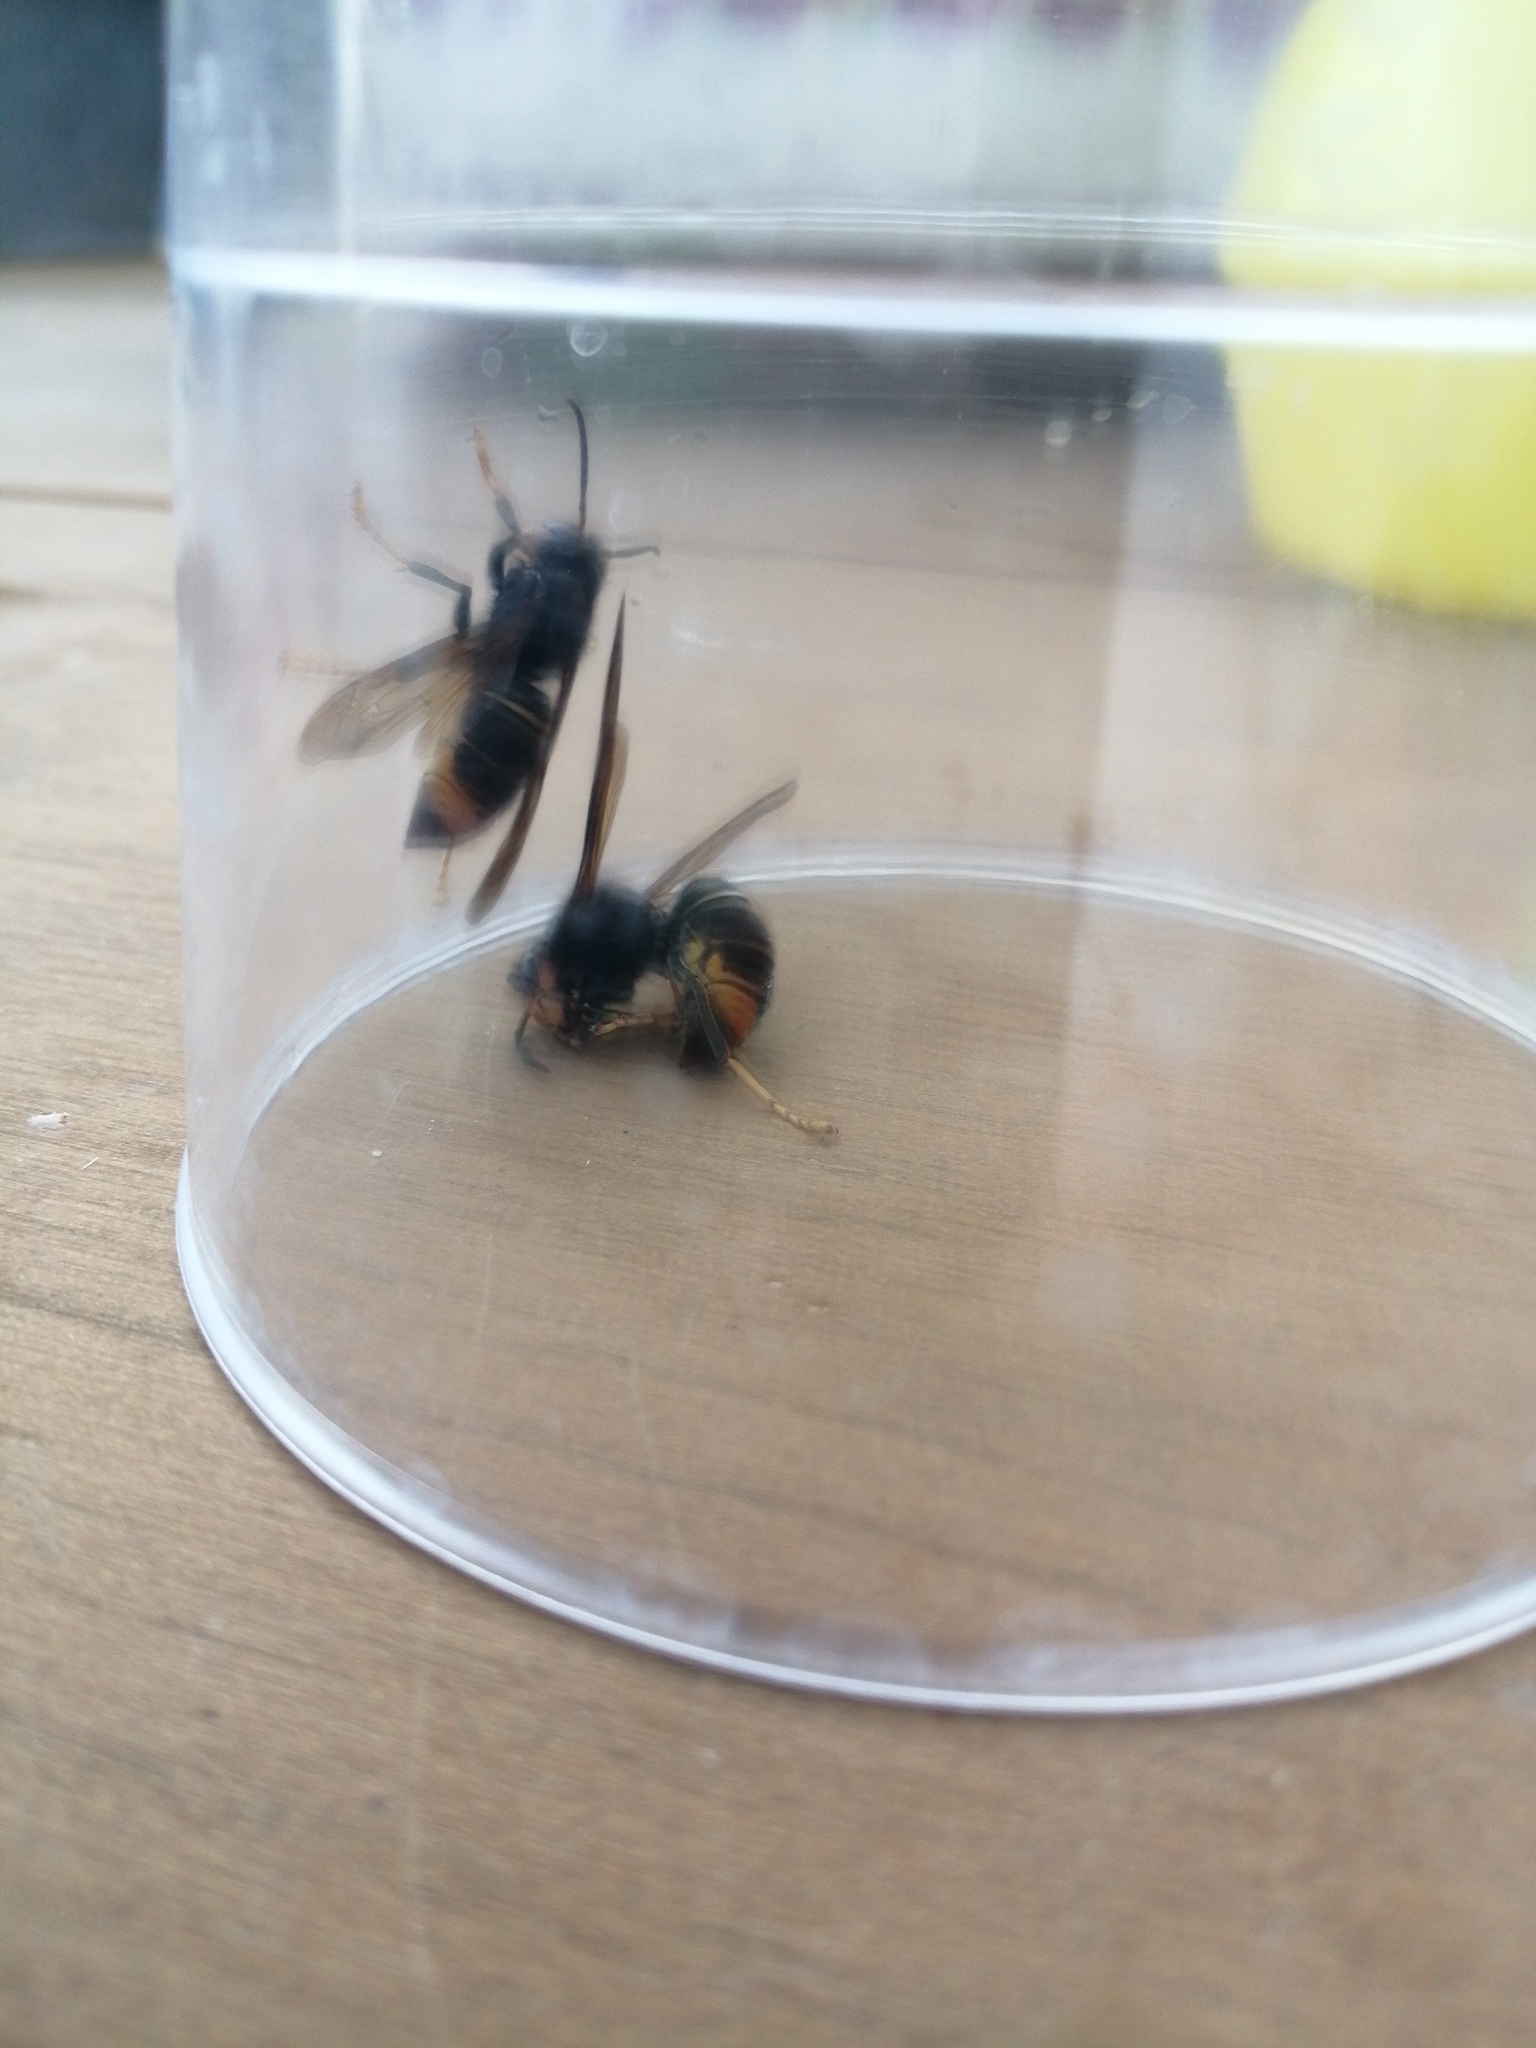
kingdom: Animalia
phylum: Arthropoda
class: Insecta
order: Hymenoptera
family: Vespidae
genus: Vespa
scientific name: Vespa velutina
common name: Asian hornet
